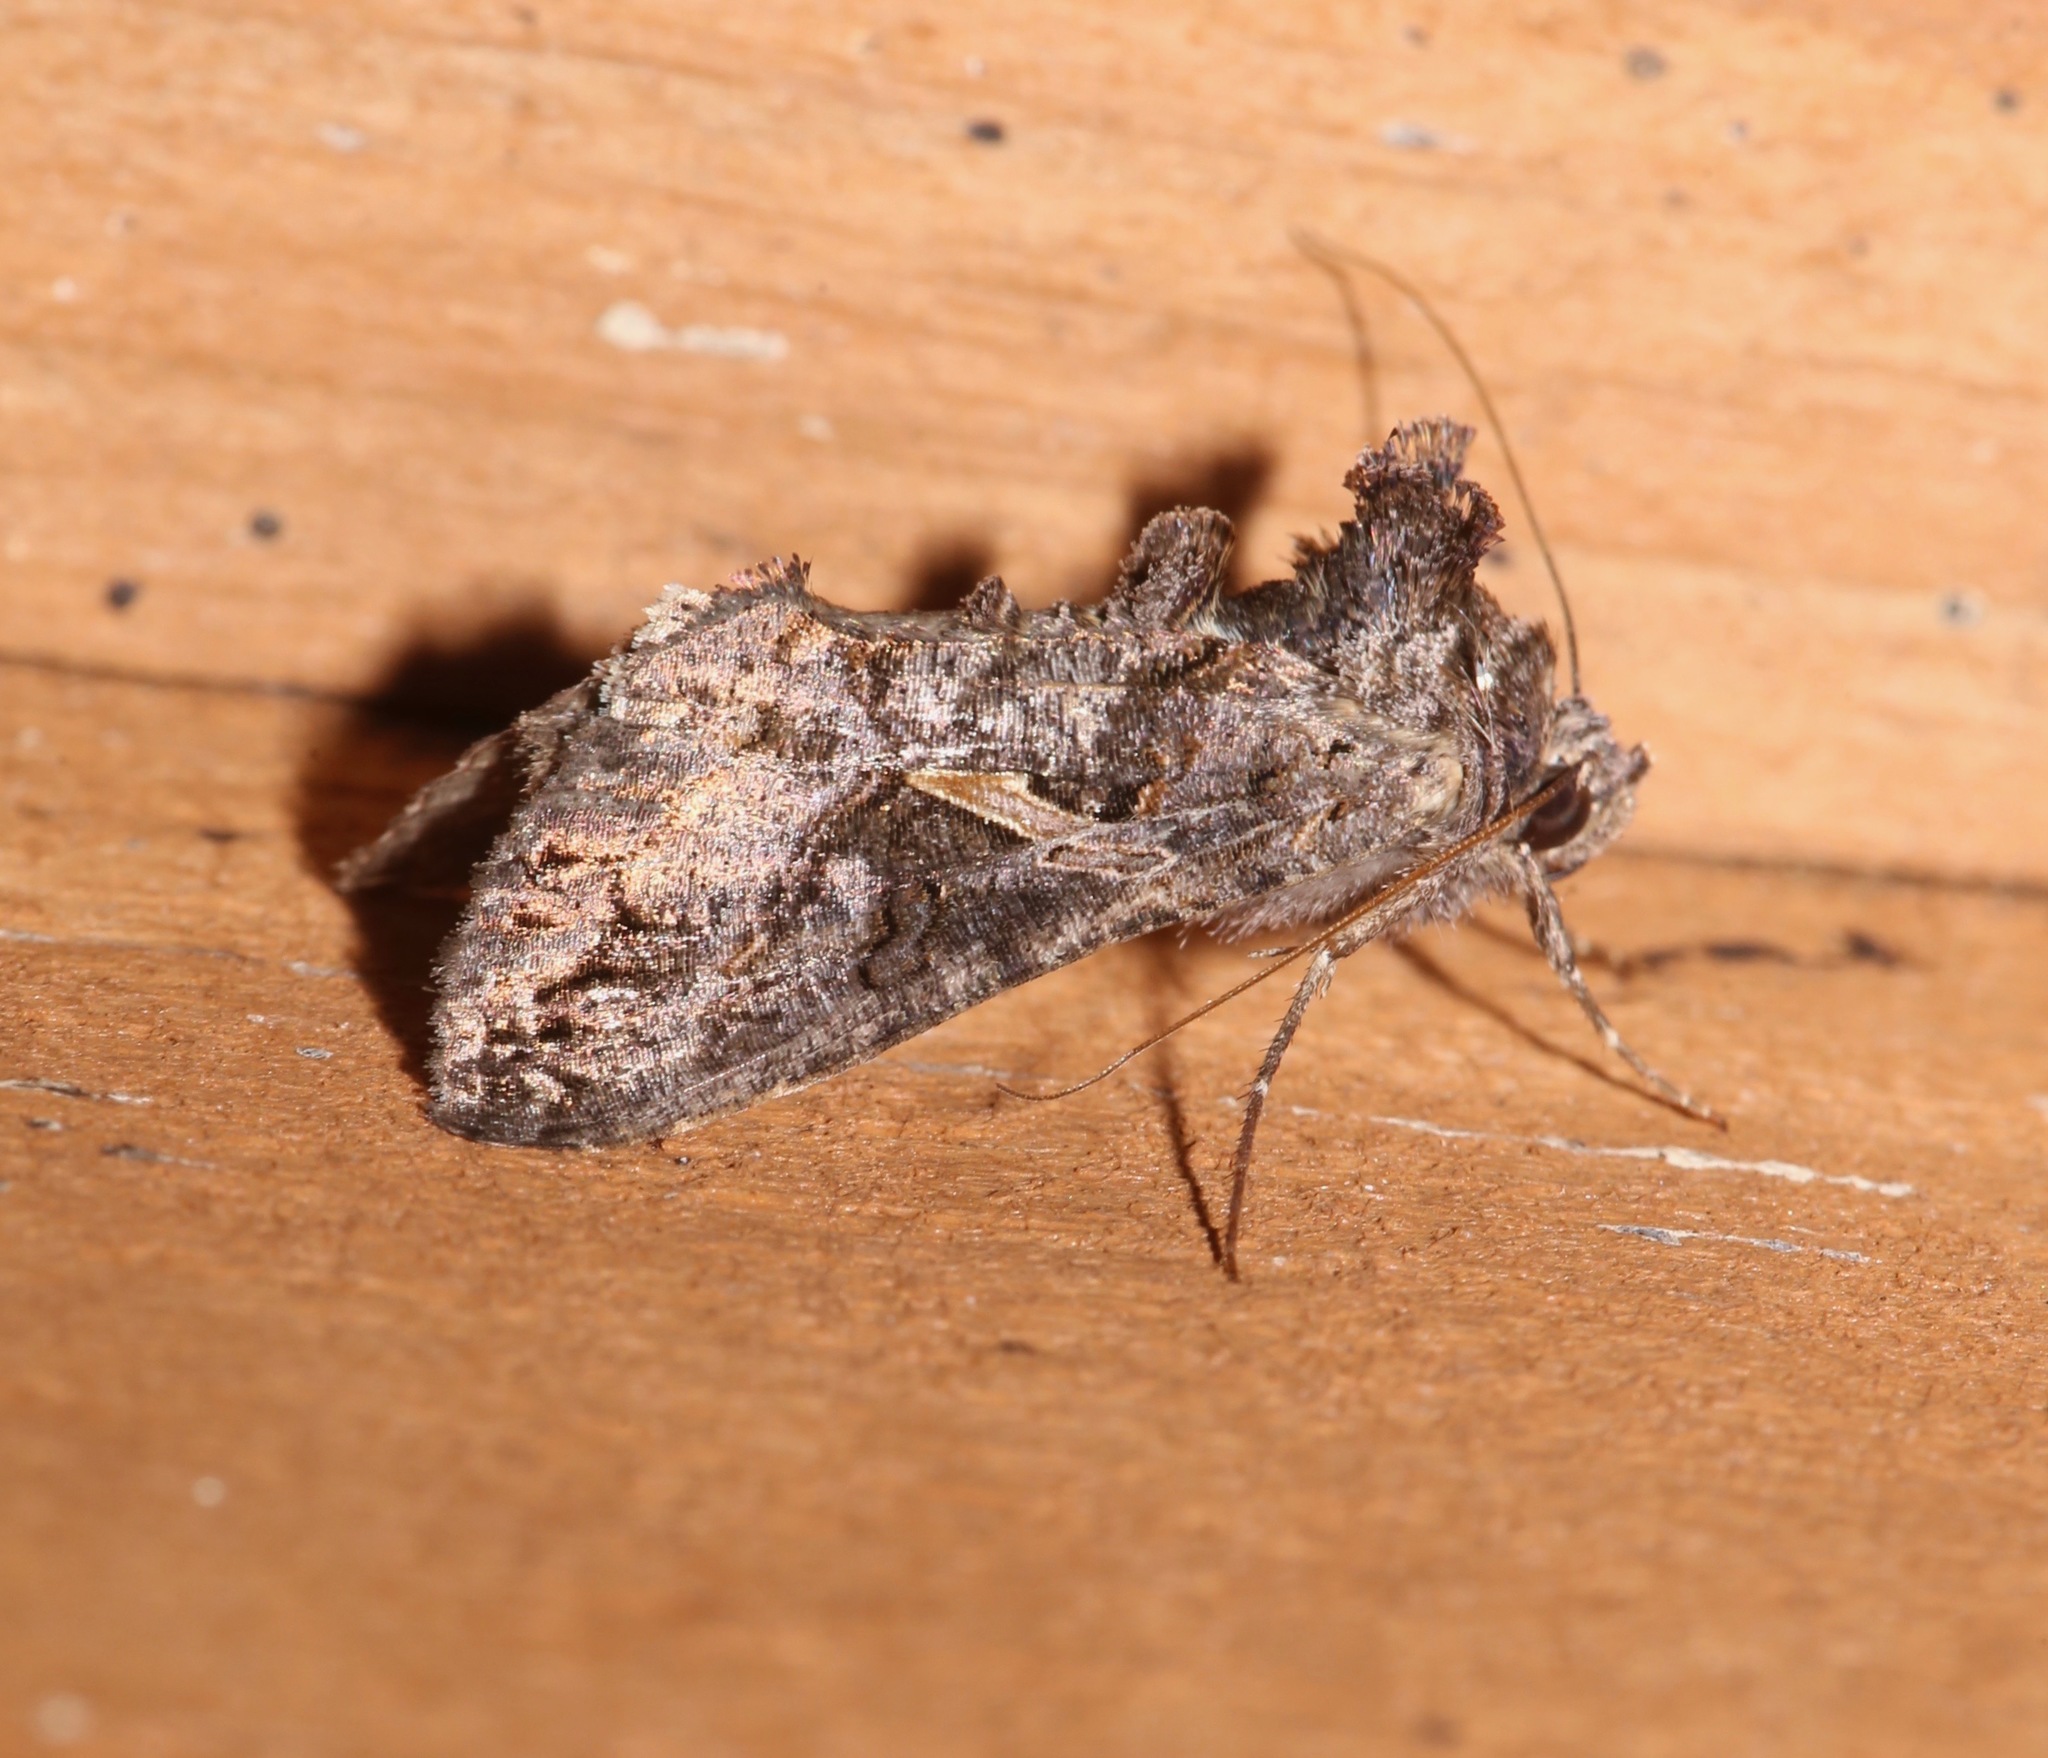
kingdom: Animalia
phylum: Arthropoda
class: Insecta
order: Lepidoptera
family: Noctuidae
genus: Ctenoplusia
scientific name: Ctenoplusia oxygramma
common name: Sharp-stigma looper moth
